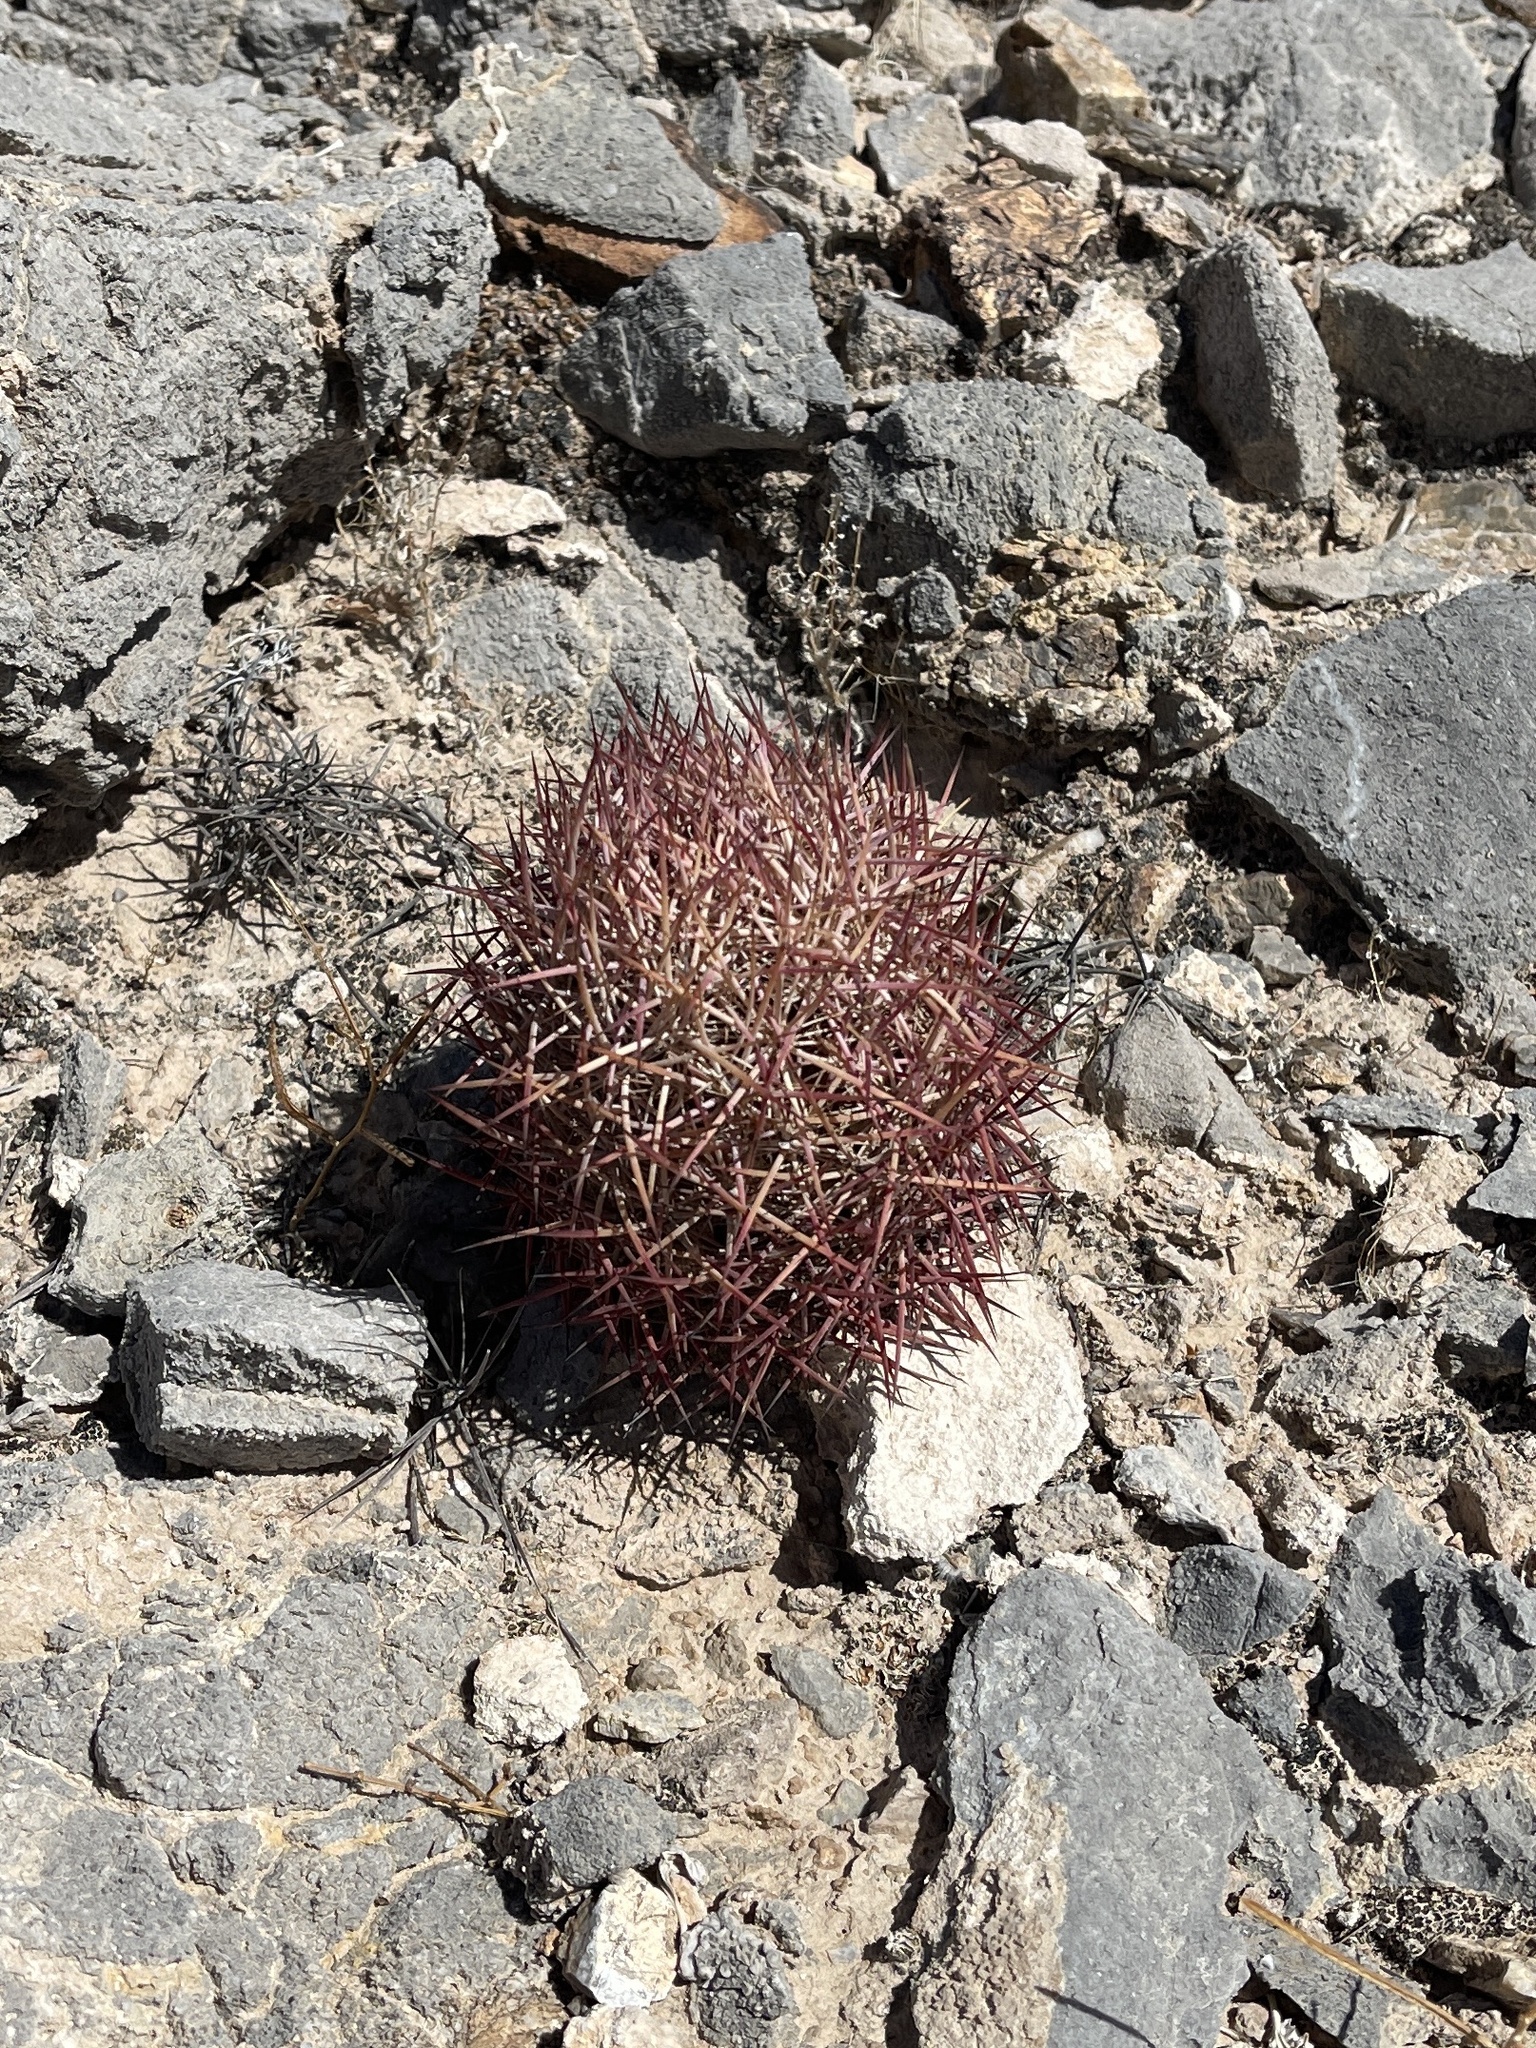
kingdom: Plantae
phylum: Tracheophyta
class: Magnoliopsida
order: Caryophyllales
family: Cactaceae
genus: Sclerocactus
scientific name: Sclerocactus johnsonii
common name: Eight-spine fishhook cactus
